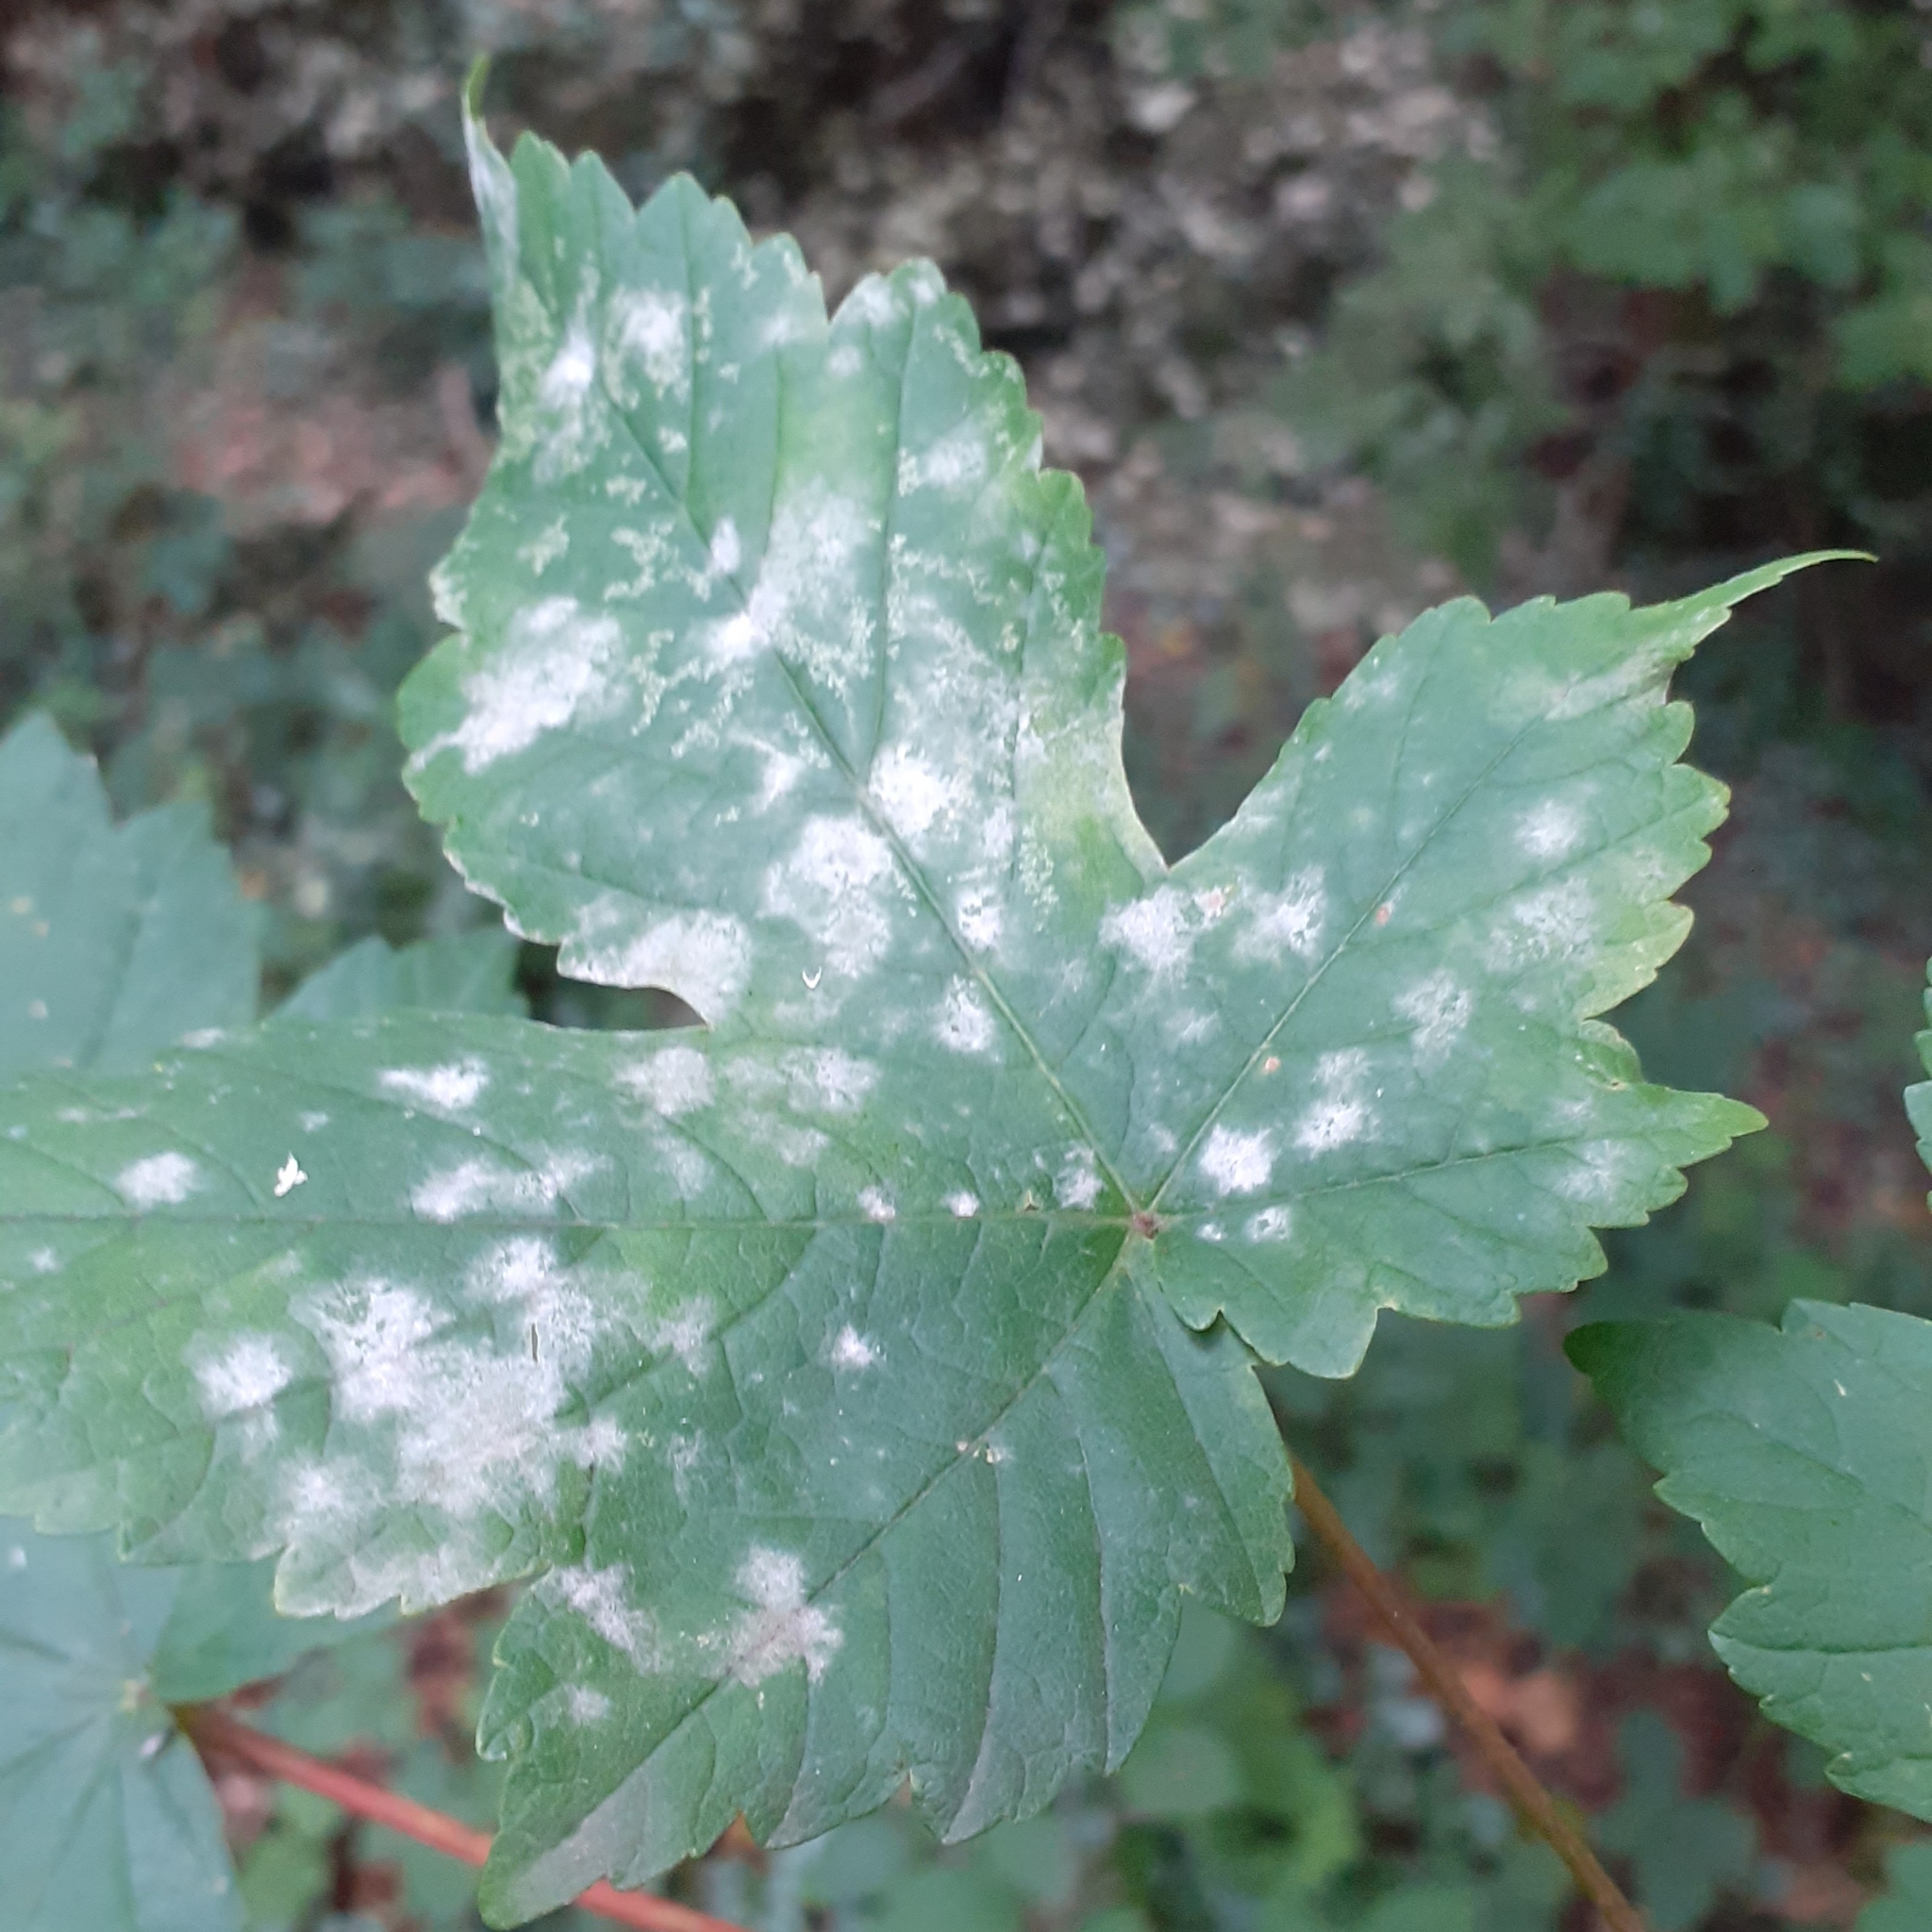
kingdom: Fungi
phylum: Ascomycota
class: Leotiomycetes
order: Helotiales
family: Erysiphaceae
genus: Sawadaea
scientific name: Sawadaea bicornis
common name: Maple mildew
